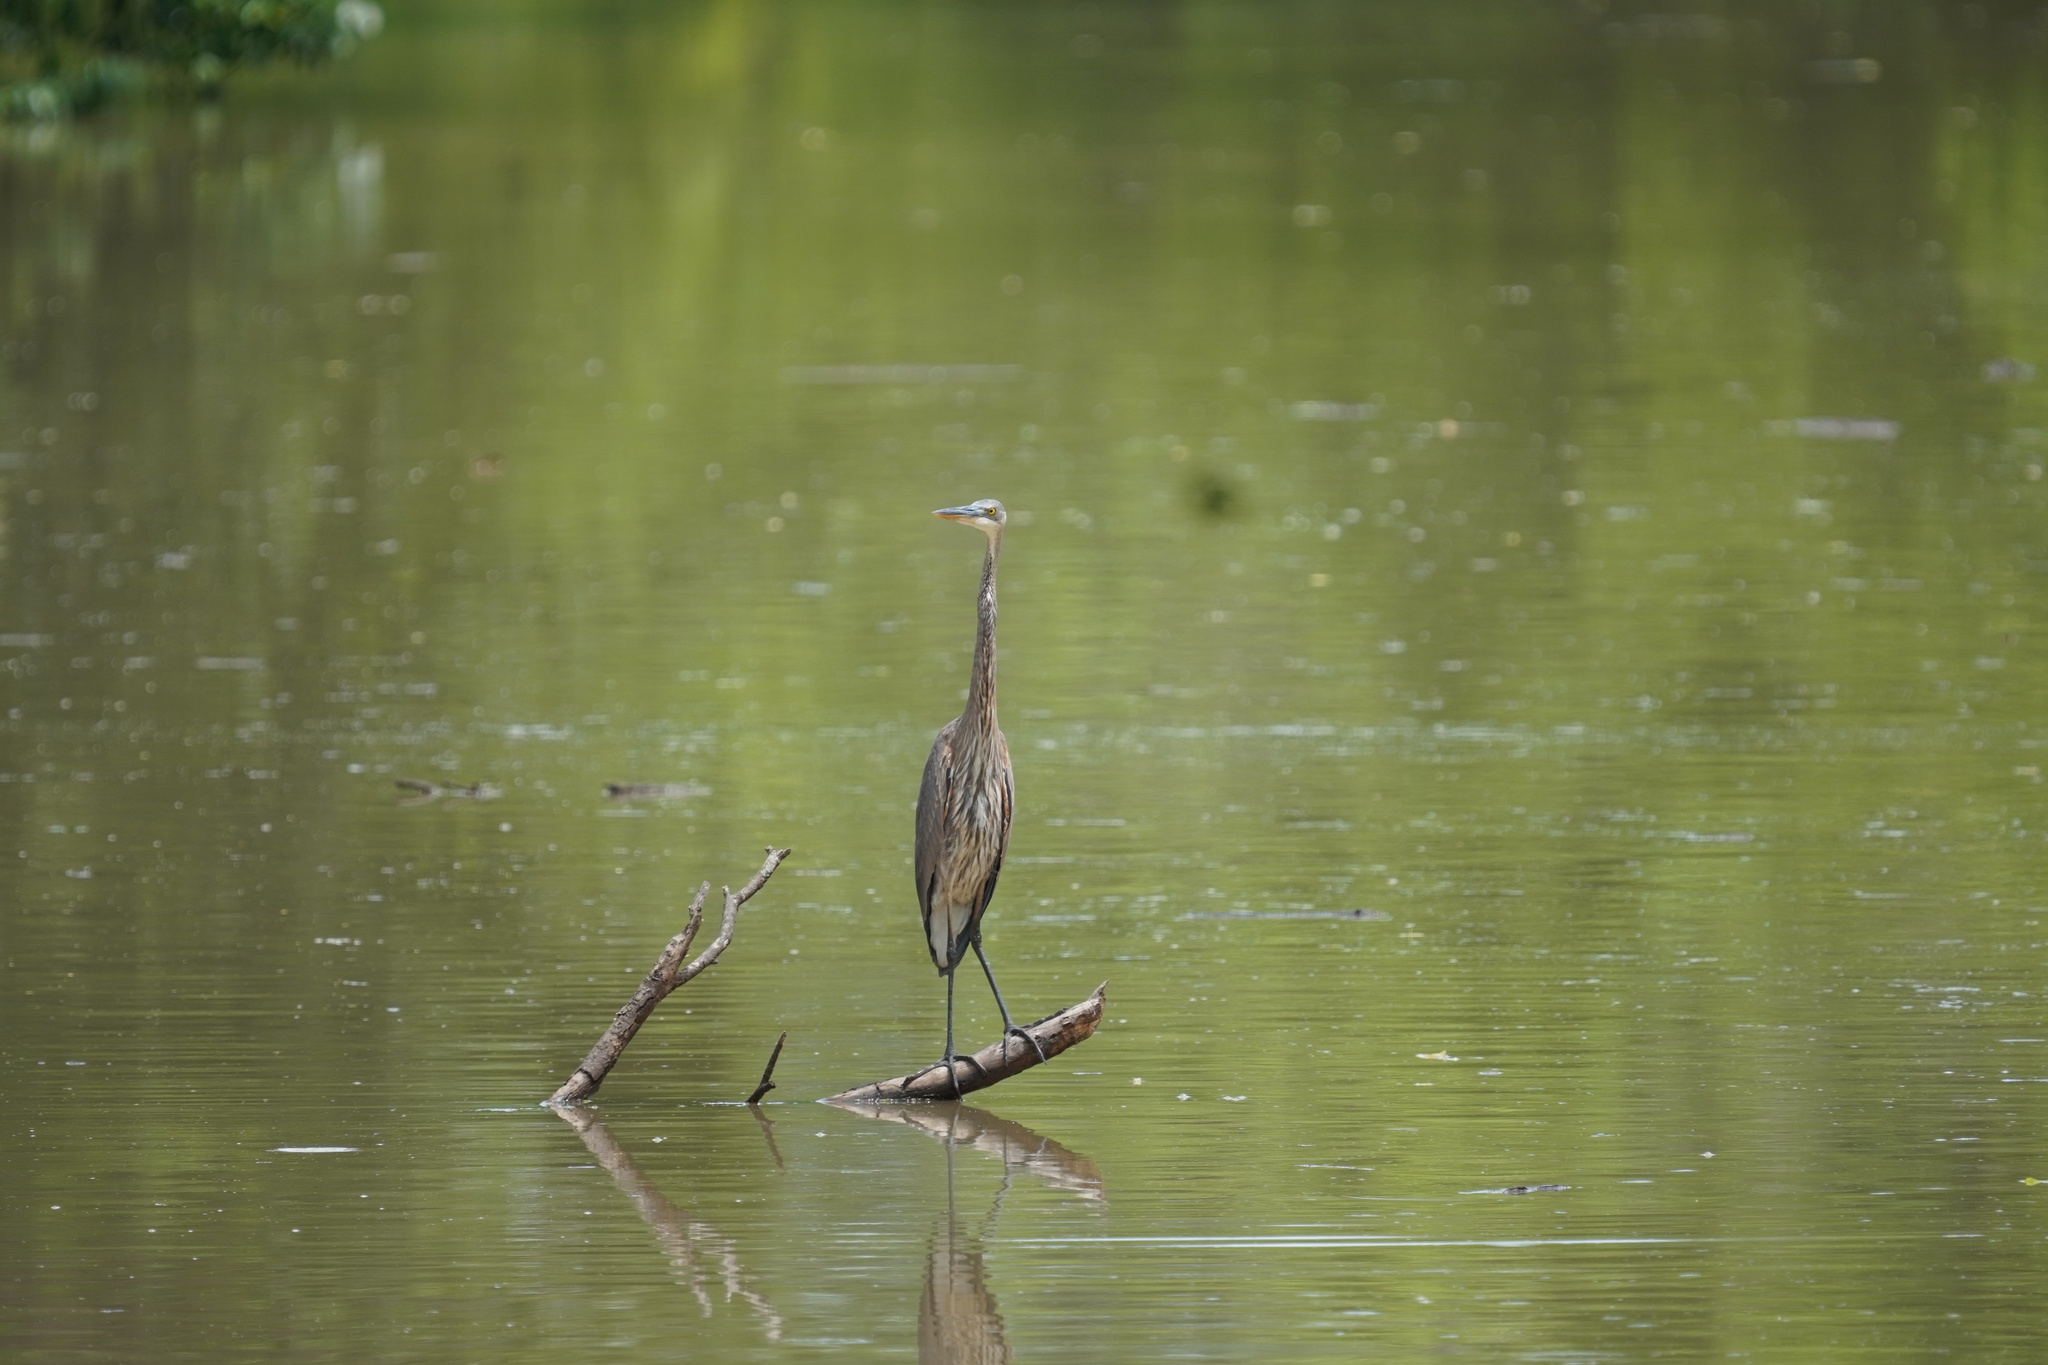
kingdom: Animalia
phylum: Chordata
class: Aves
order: Pelecaniformes
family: Ardeidae
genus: Ardea
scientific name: Ardea herodias
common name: Great blue heron
